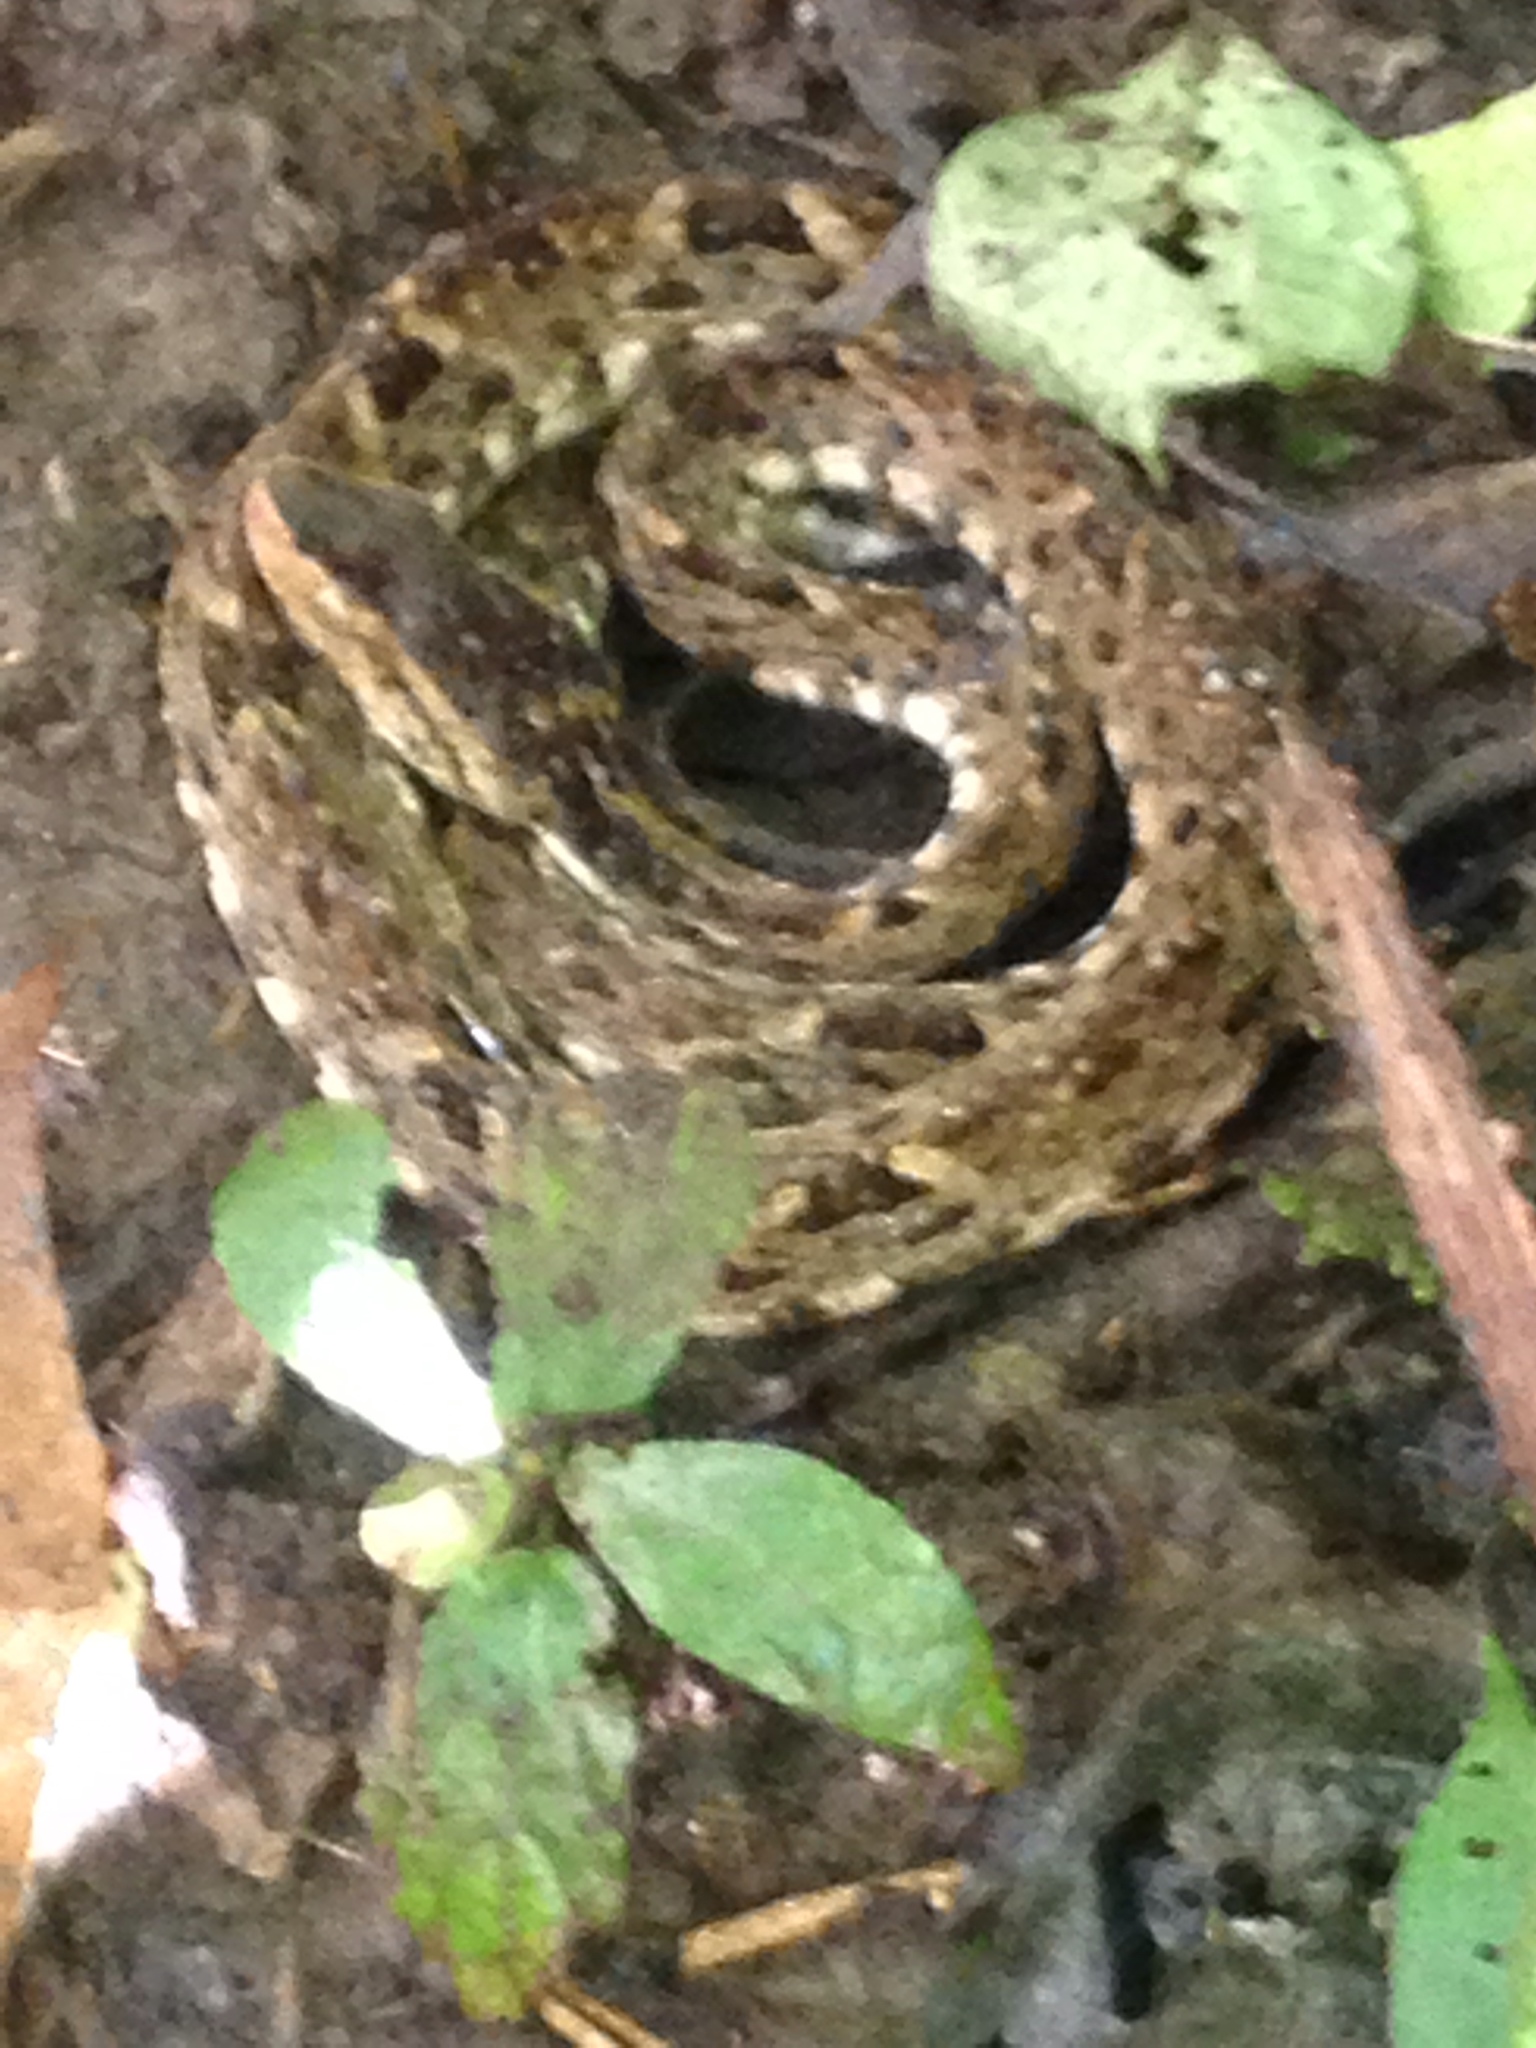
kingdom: Animalia
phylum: Chordata
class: Squamata
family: Viperidae
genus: Bothrops
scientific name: Bothrops asper
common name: Terciopelo
